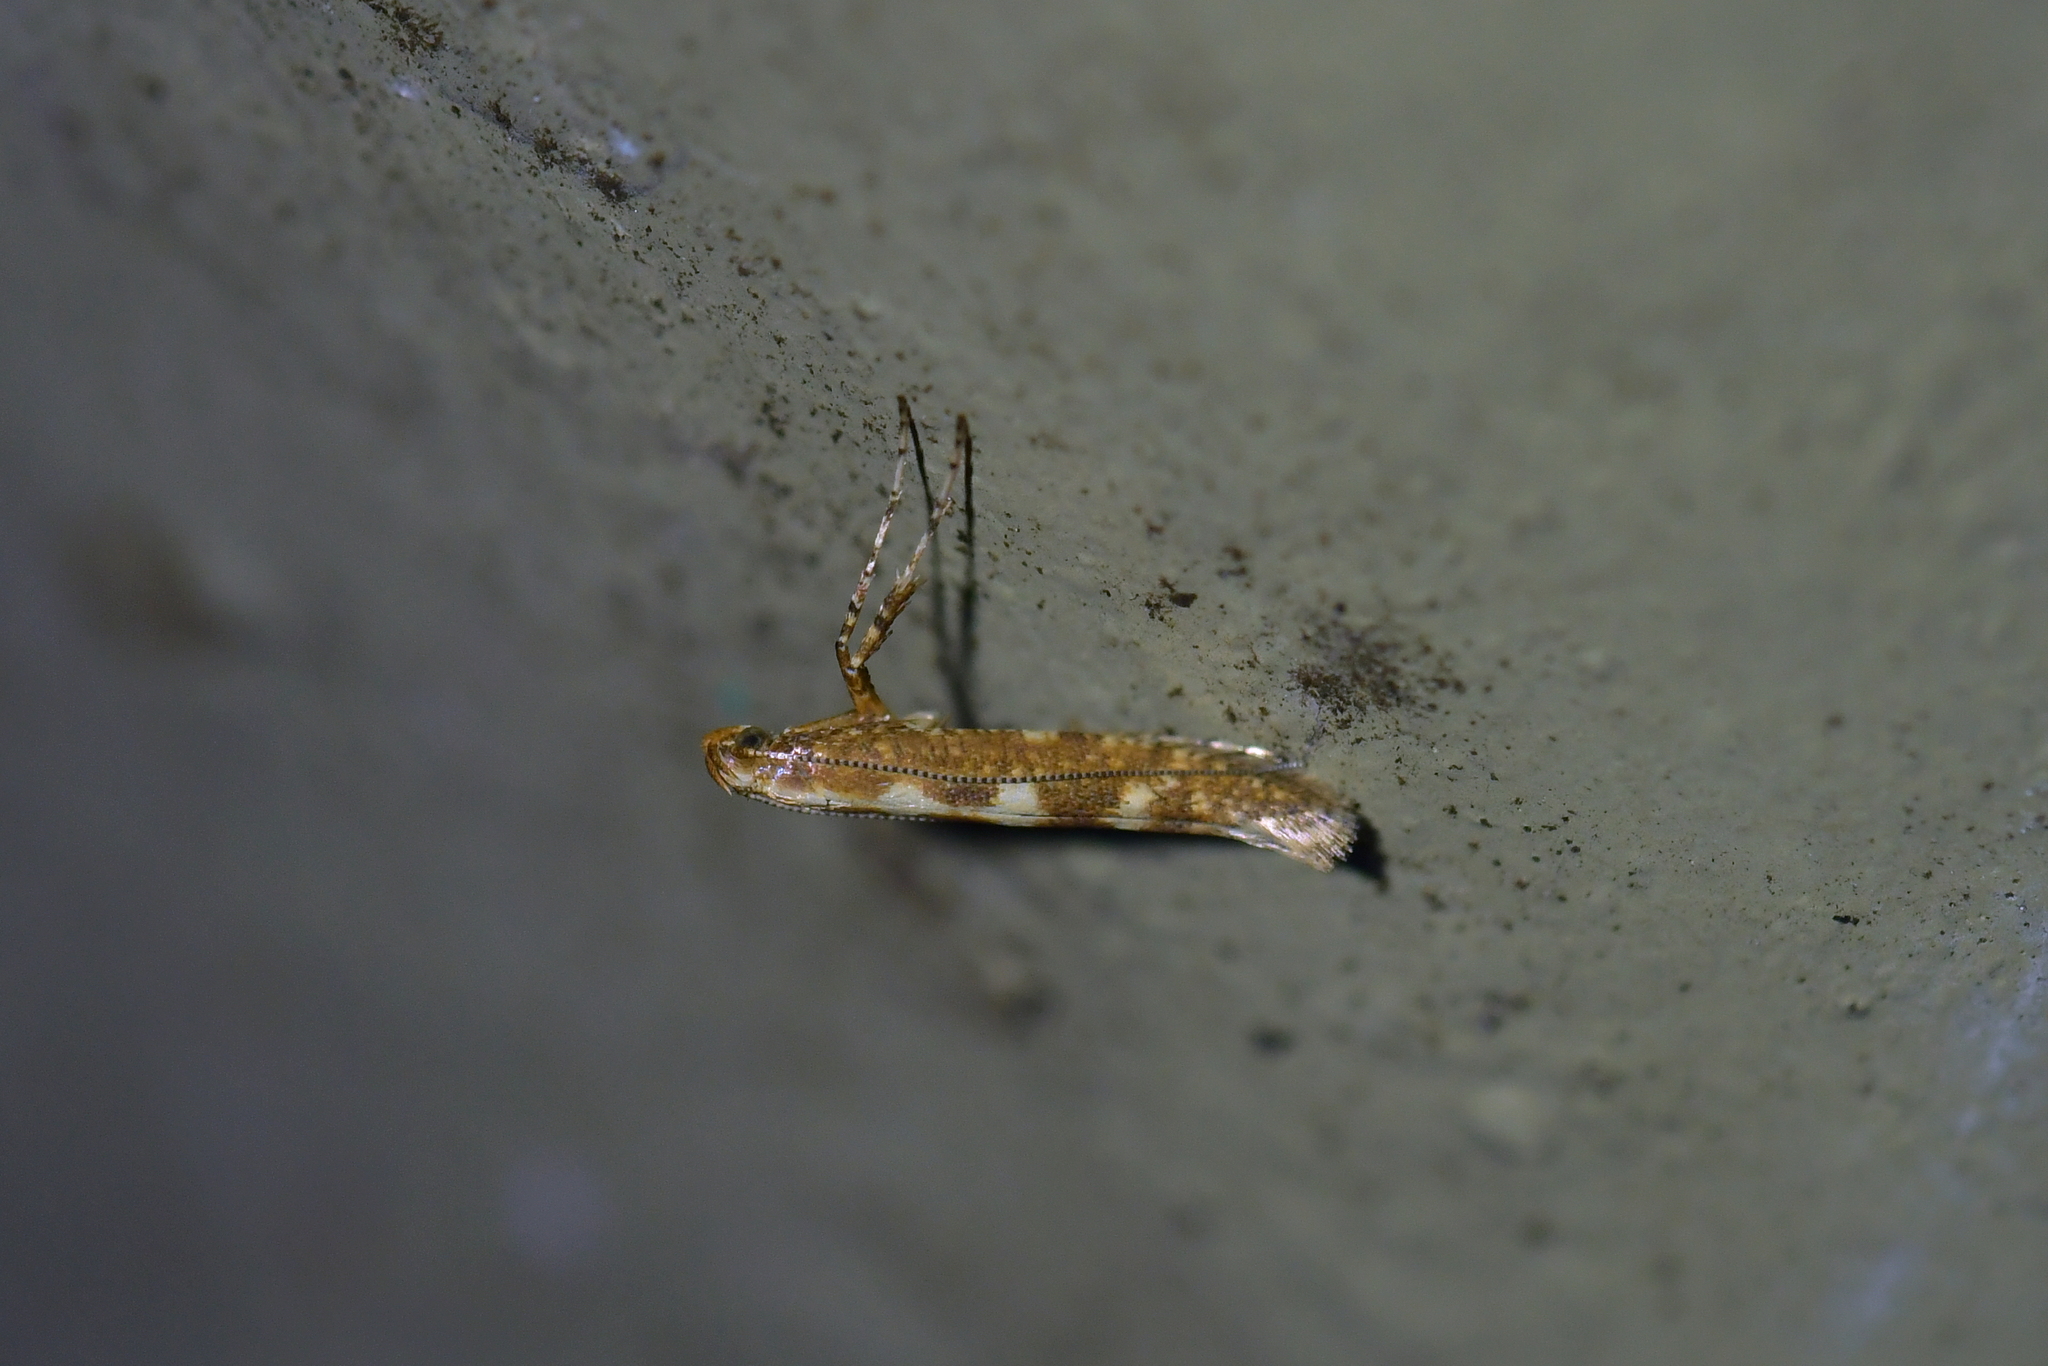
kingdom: Animalia
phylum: Arthropoda
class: Insecta
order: Lepidoptera
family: Gracillariidae
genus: Caloptilia
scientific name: Caloptilia selenitis
